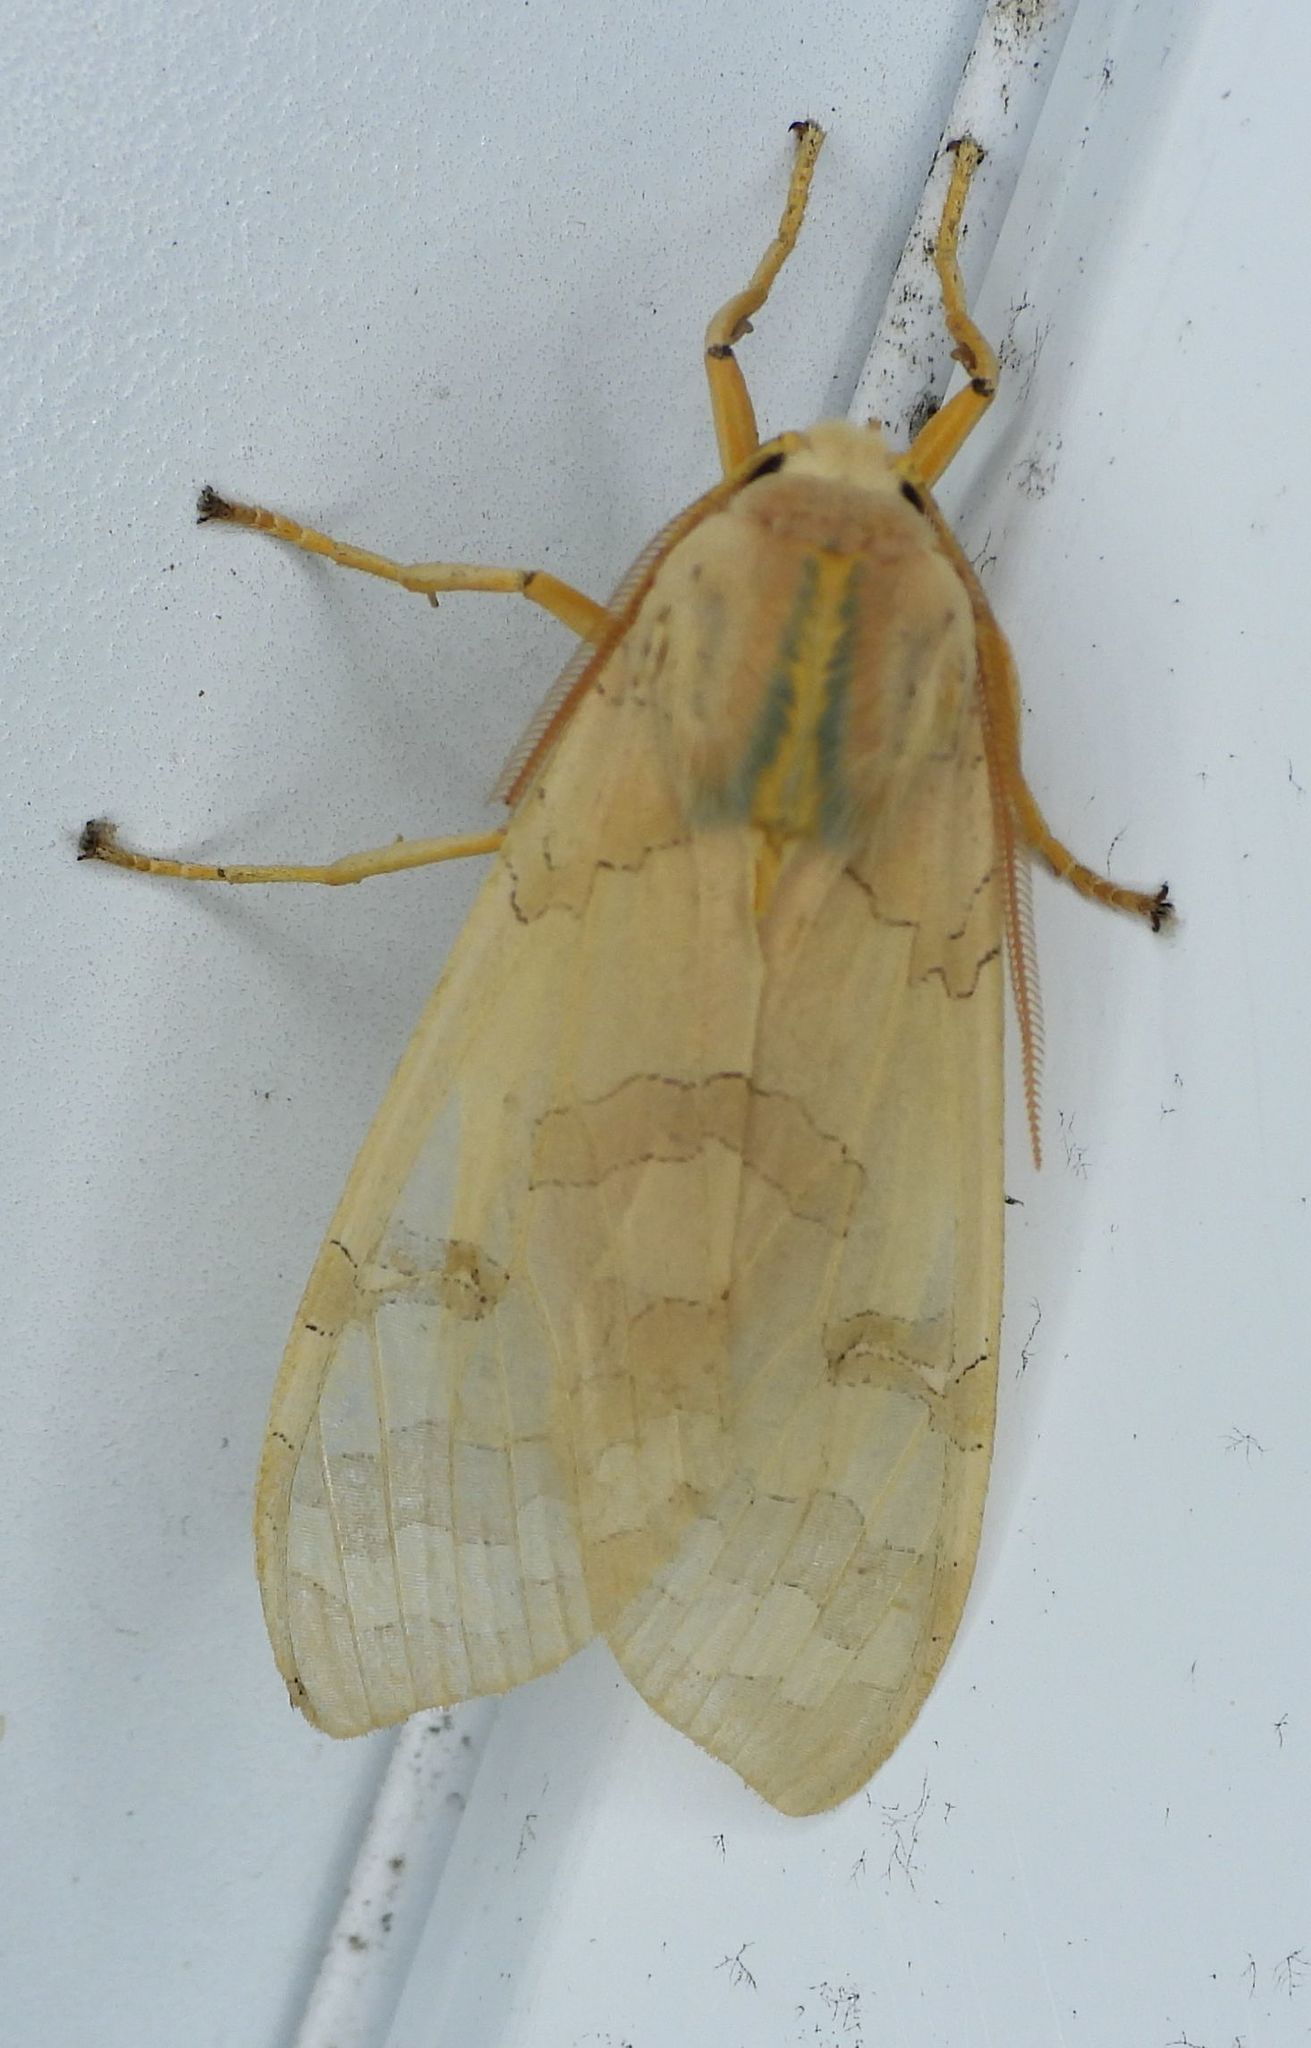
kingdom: Animalia
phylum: Arthropoda
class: Insecta
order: Lepidoptera
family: Erebidae
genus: Halysidota
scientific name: Halysidota tessellaris
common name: Banded tussock moth
